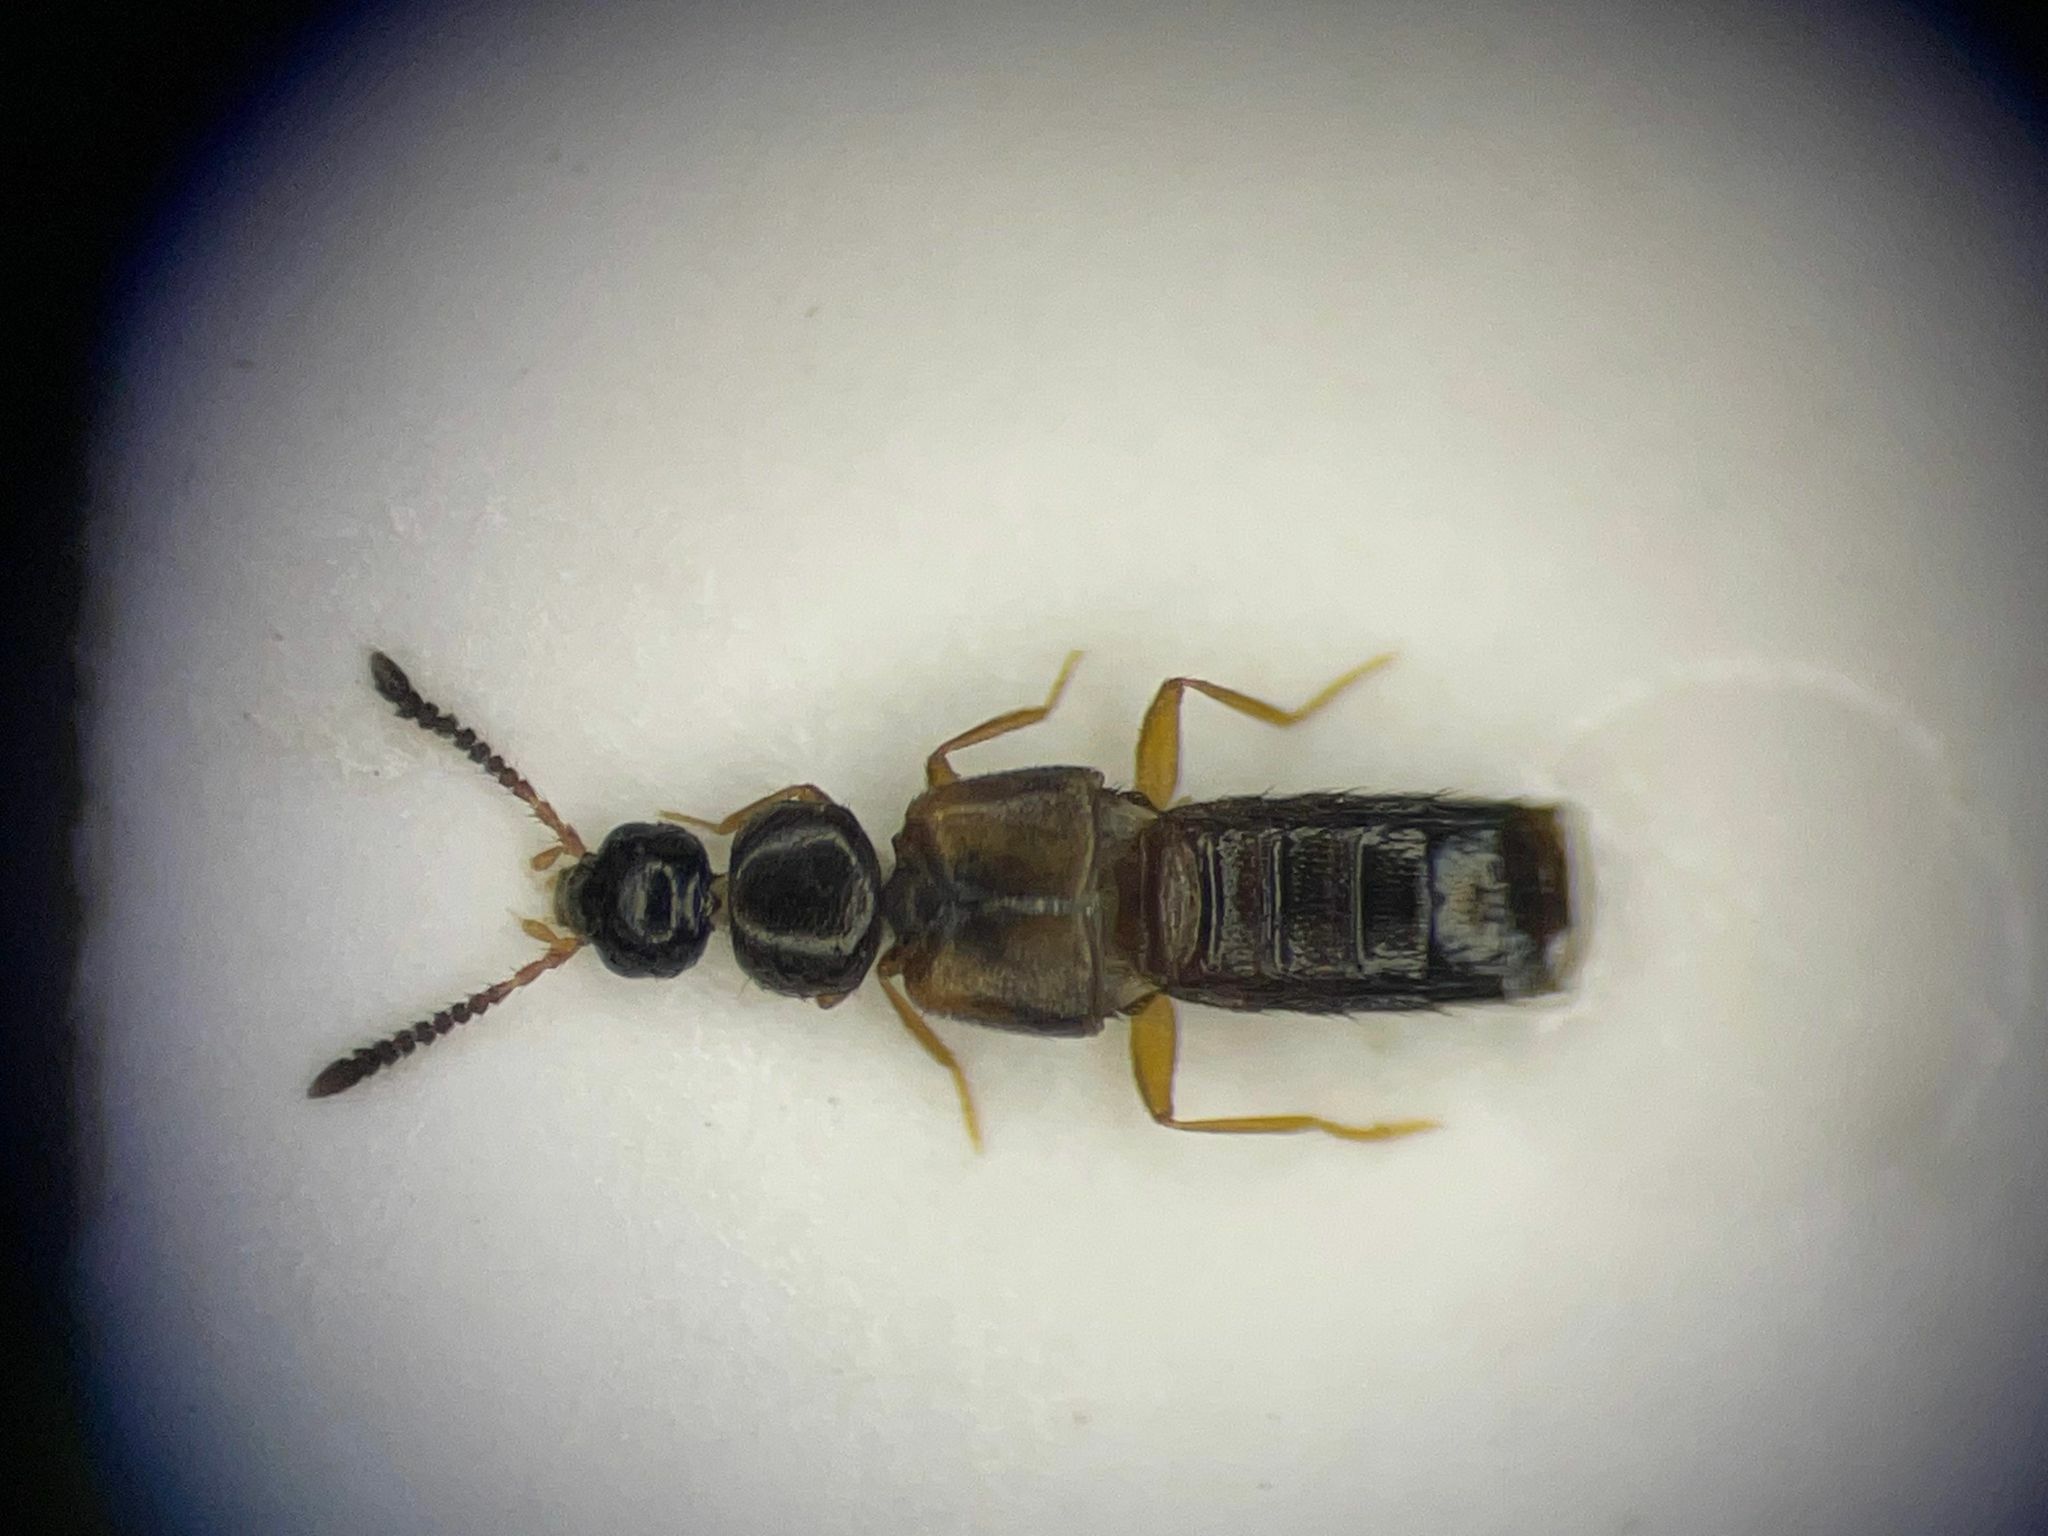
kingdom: Animalia
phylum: Arthropoda
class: Insecta
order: Coleoptera
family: Staphylinidae
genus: Atheta
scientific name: Atheta klagesi
